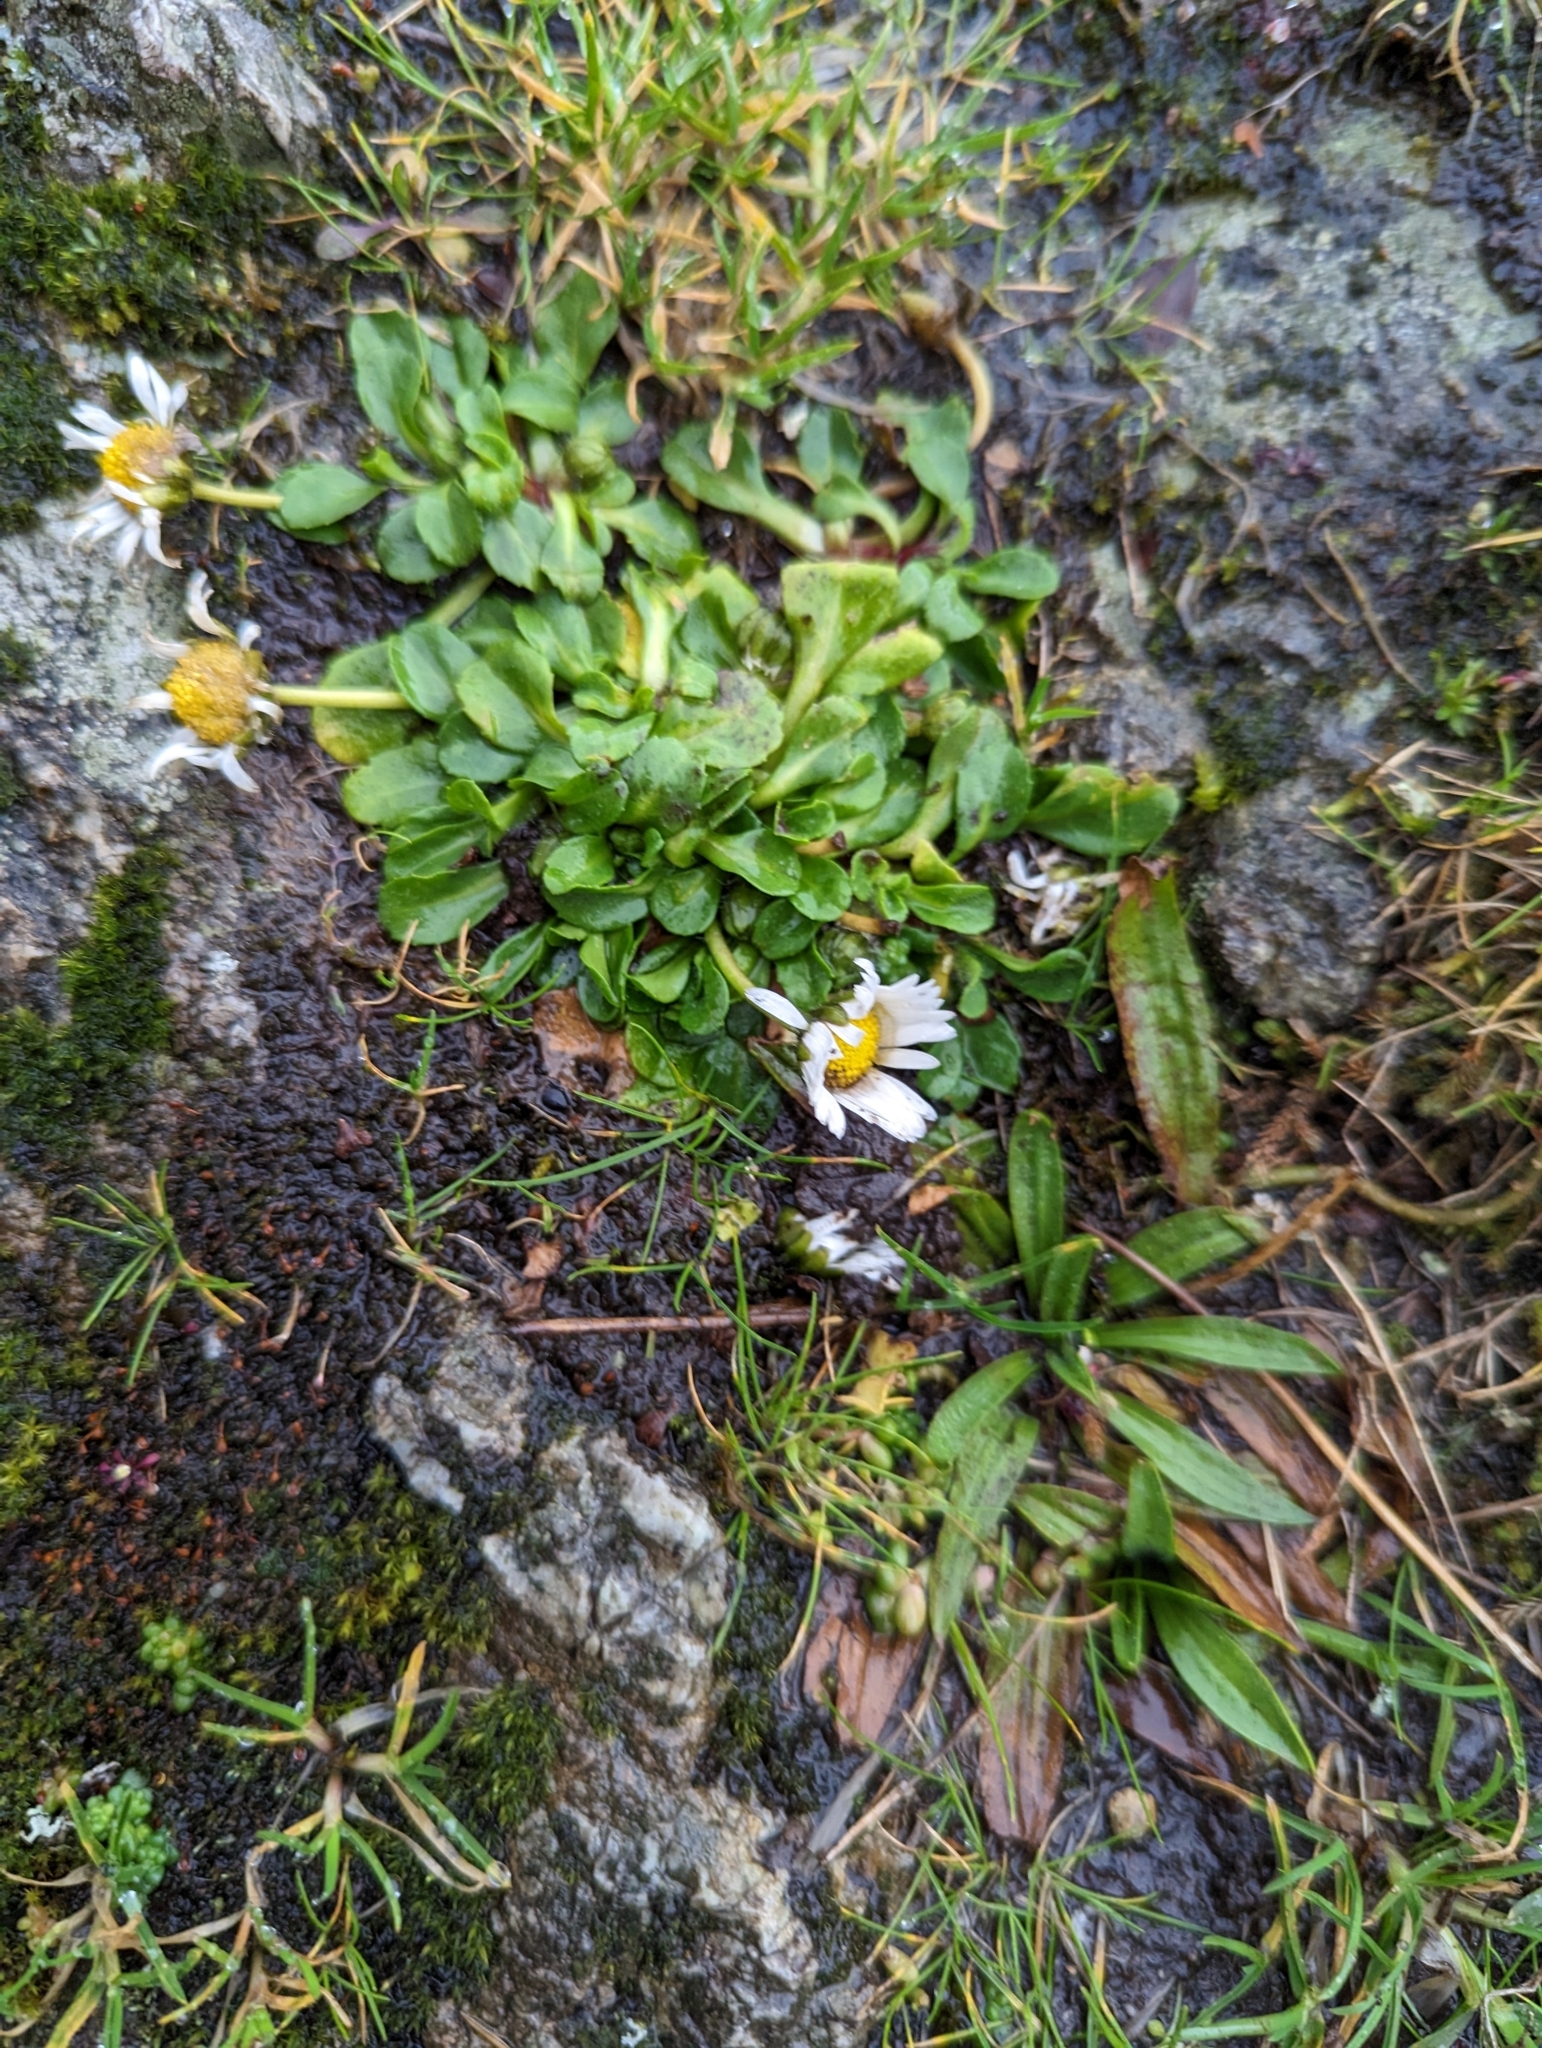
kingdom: Plantae
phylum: Tracheophyta
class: Magnoliopsida
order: Asterales
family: Asteraceae
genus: Bellis
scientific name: Bellis perennis
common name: Lawndaisy
